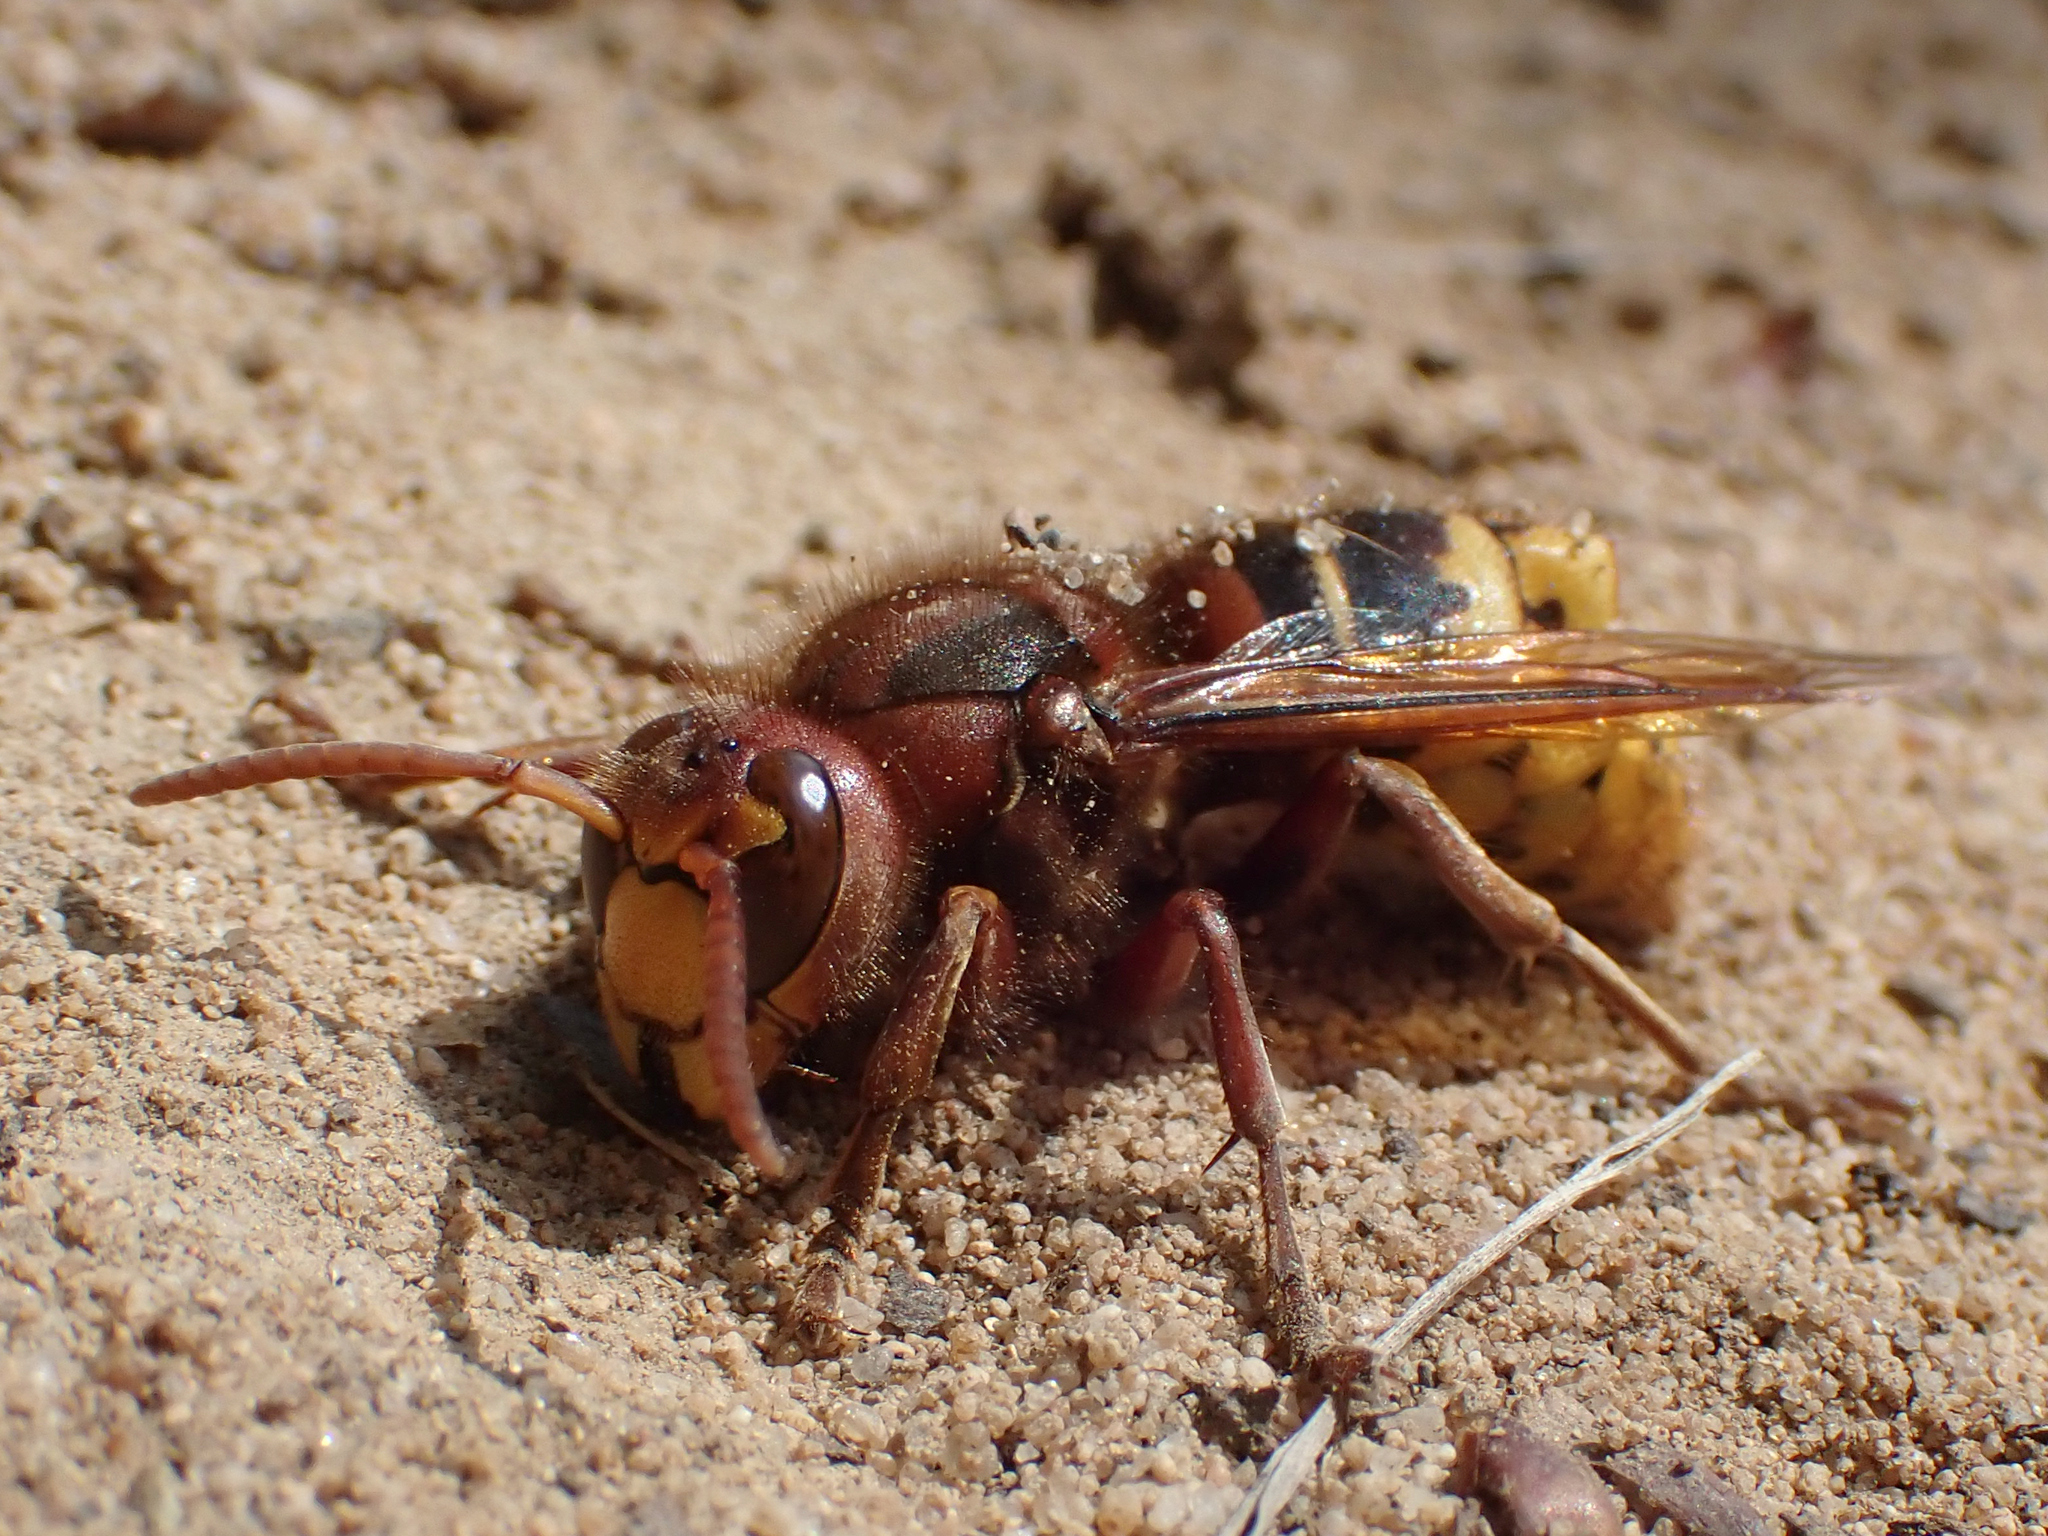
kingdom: Animalia
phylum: Arthropoda
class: Insecta
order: Hymenoptera
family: Vespidae
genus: Vespa
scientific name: Vespa crabro
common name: Hornet
